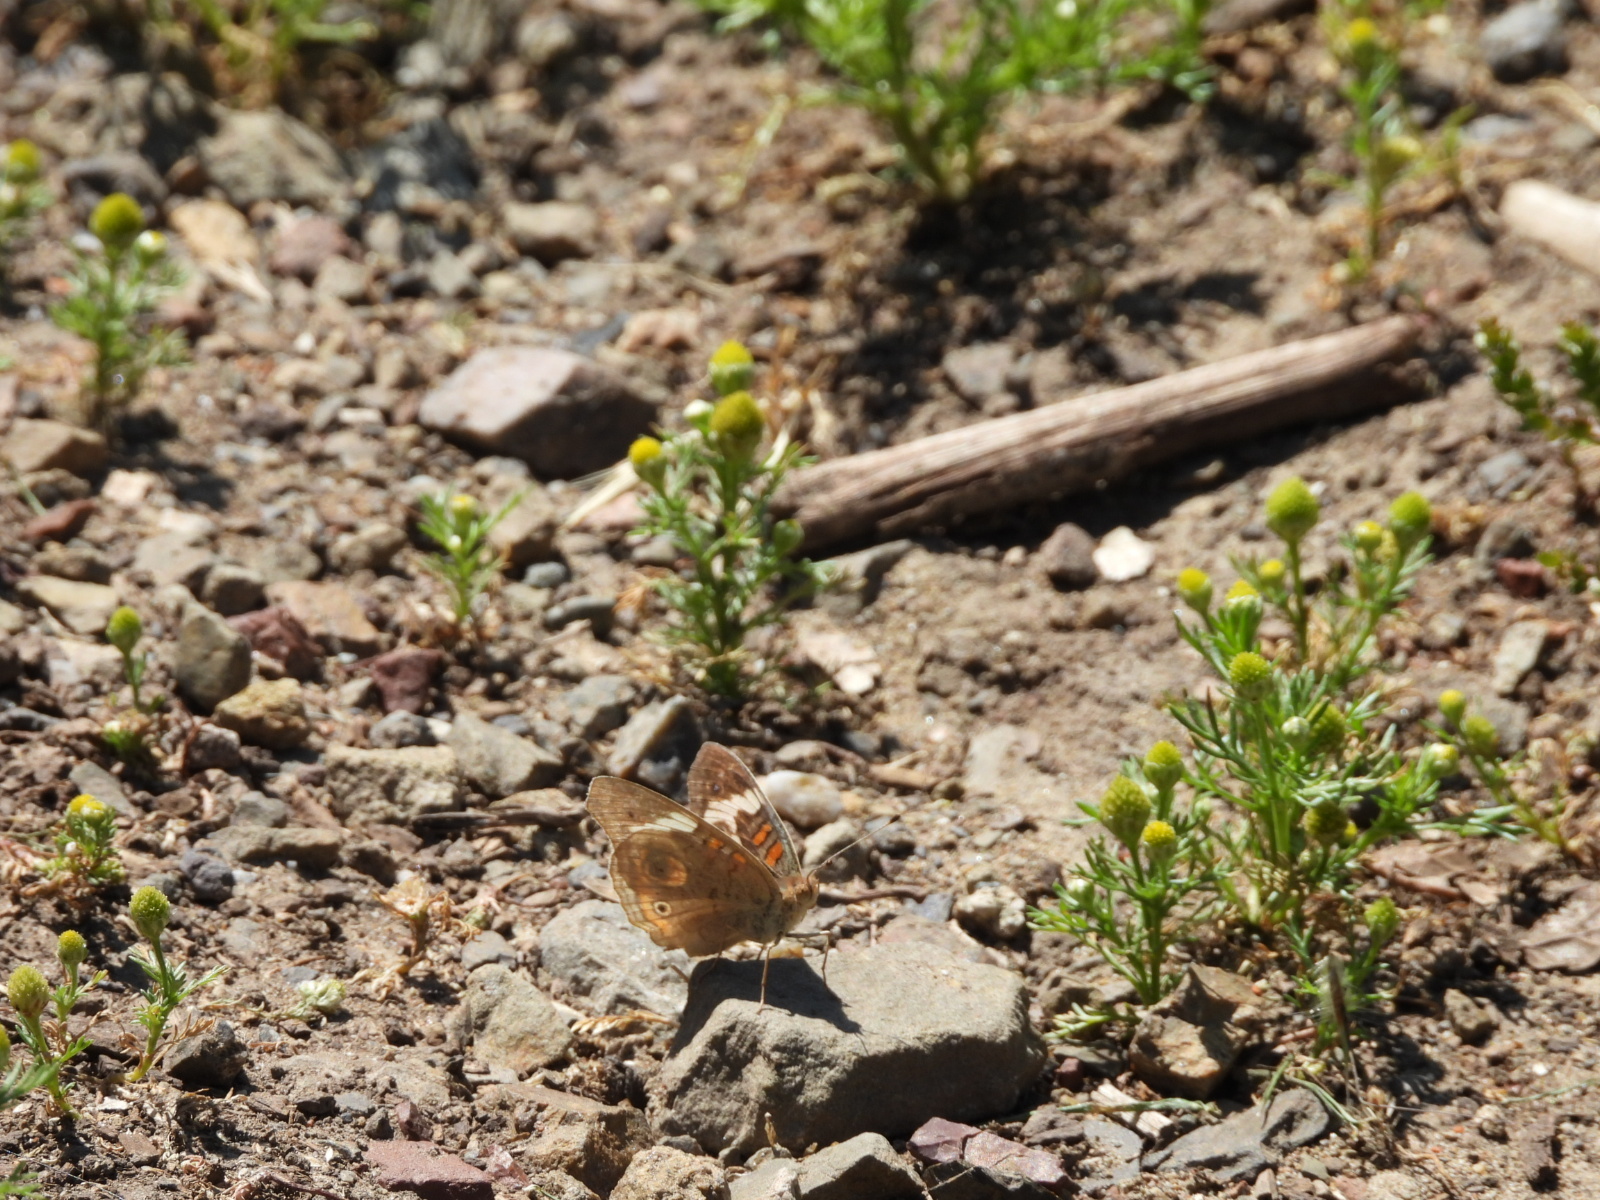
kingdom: Animalia
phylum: Arthropoda
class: Insecta
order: Lepidoptera
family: Nymphalidae
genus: Junonia
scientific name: Junonia grisea
